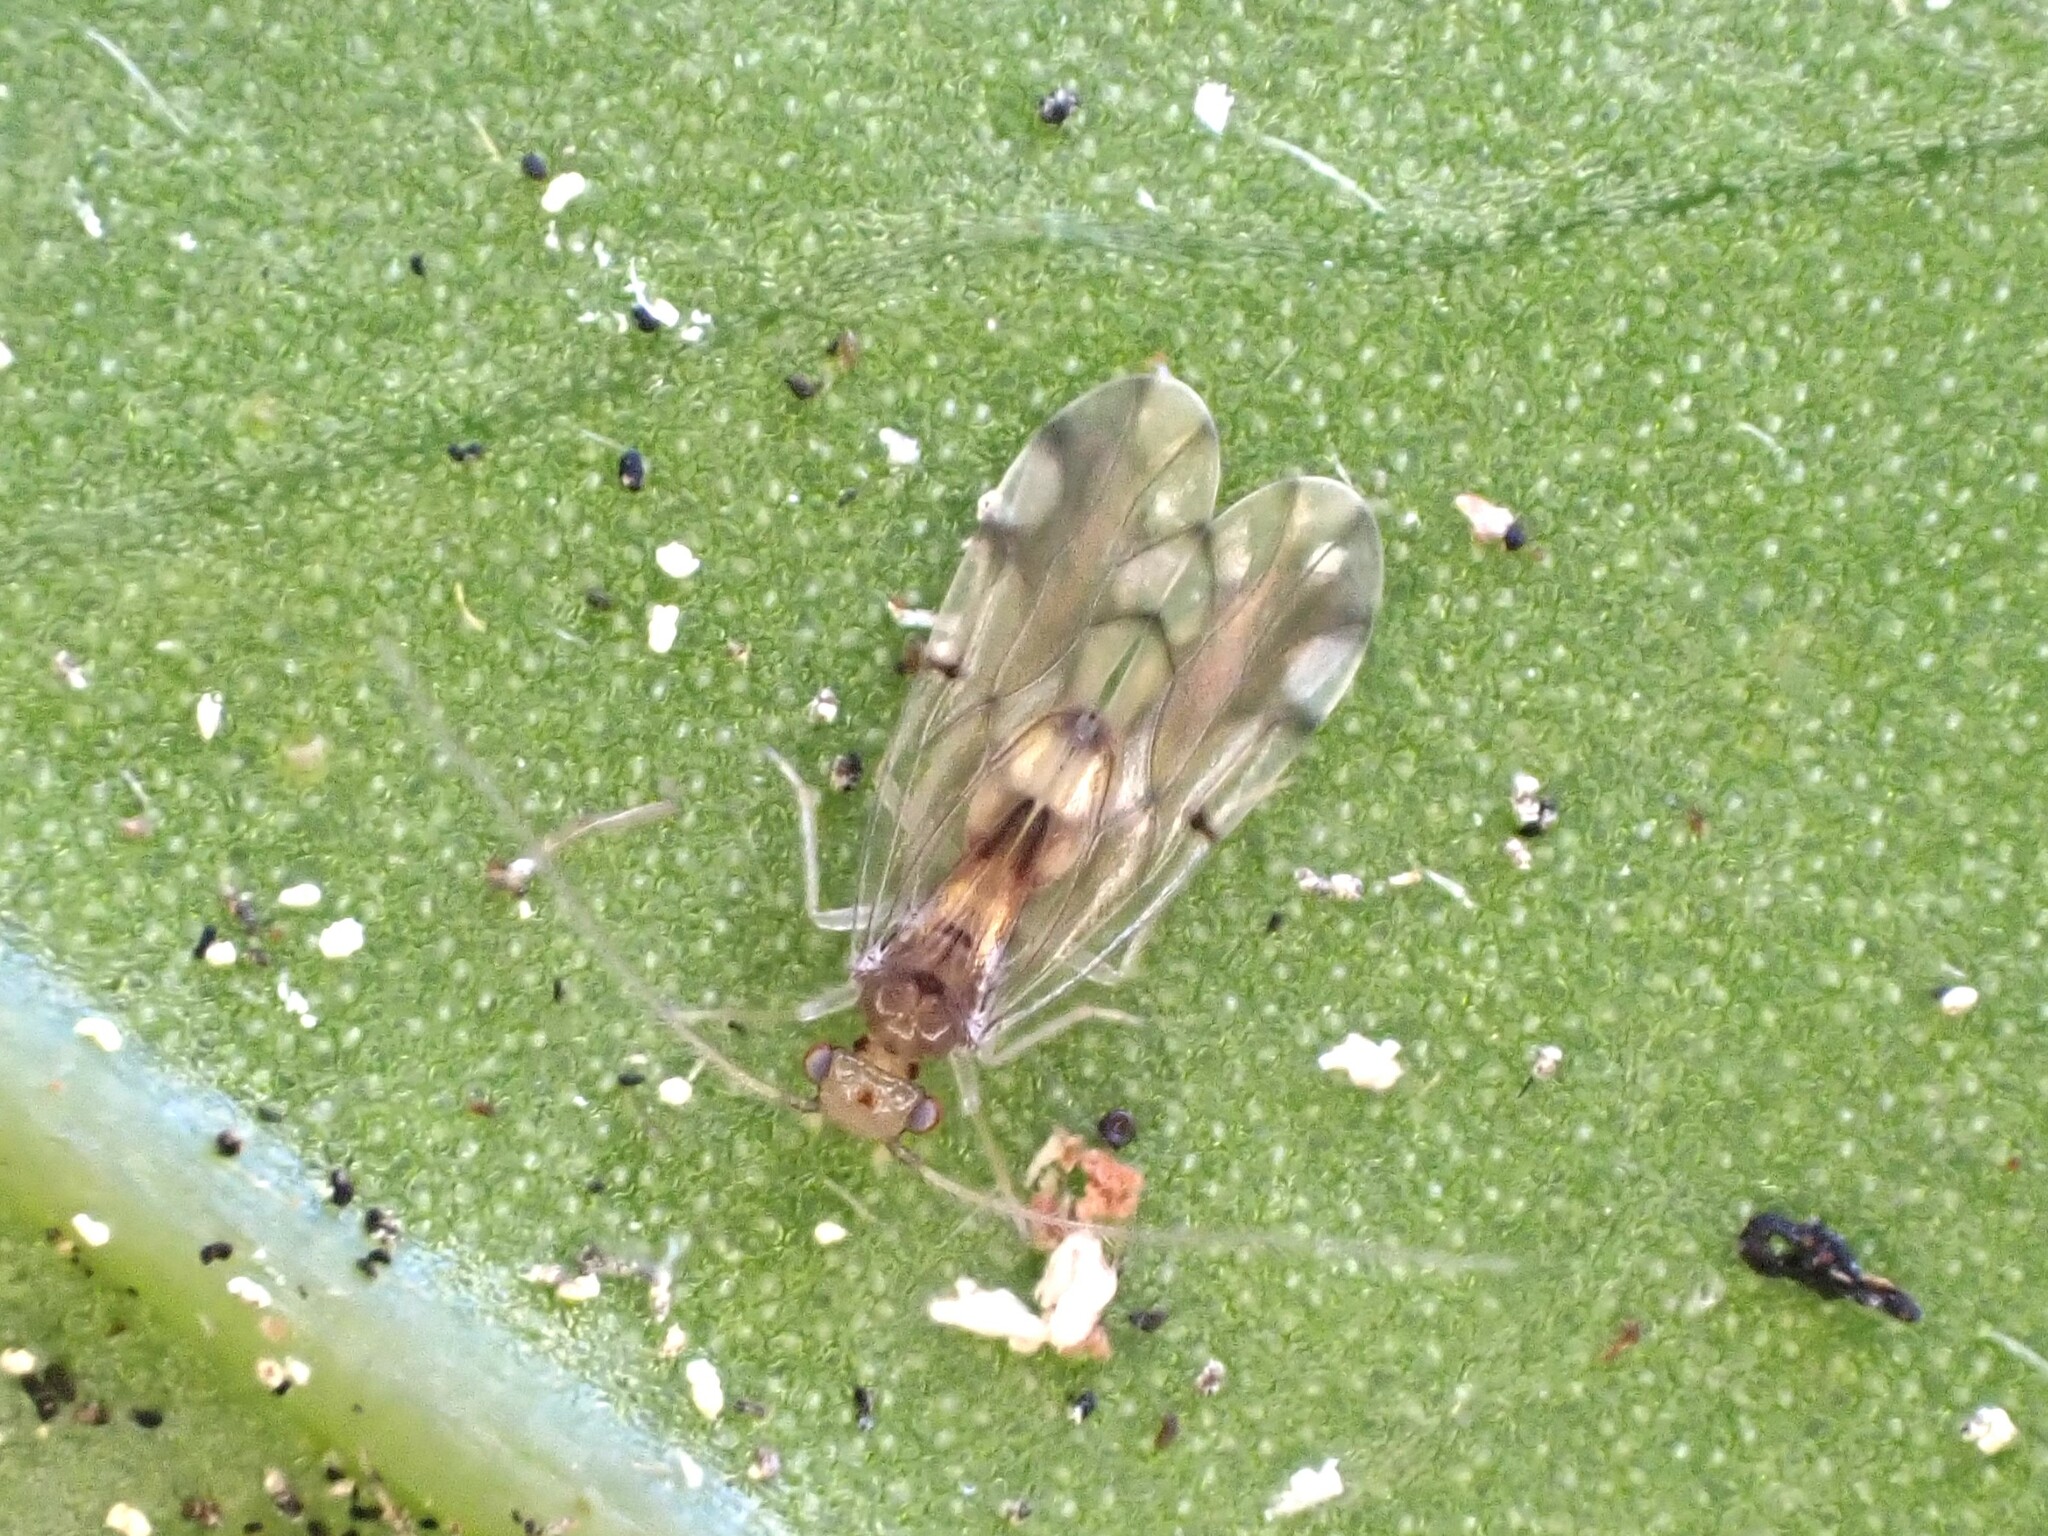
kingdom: Animalia
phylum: Arthropoda
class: Insecta
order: Psocodea
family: Ectopsocidae
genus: Ectopsocus
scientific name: Ectopsocus gracilis
